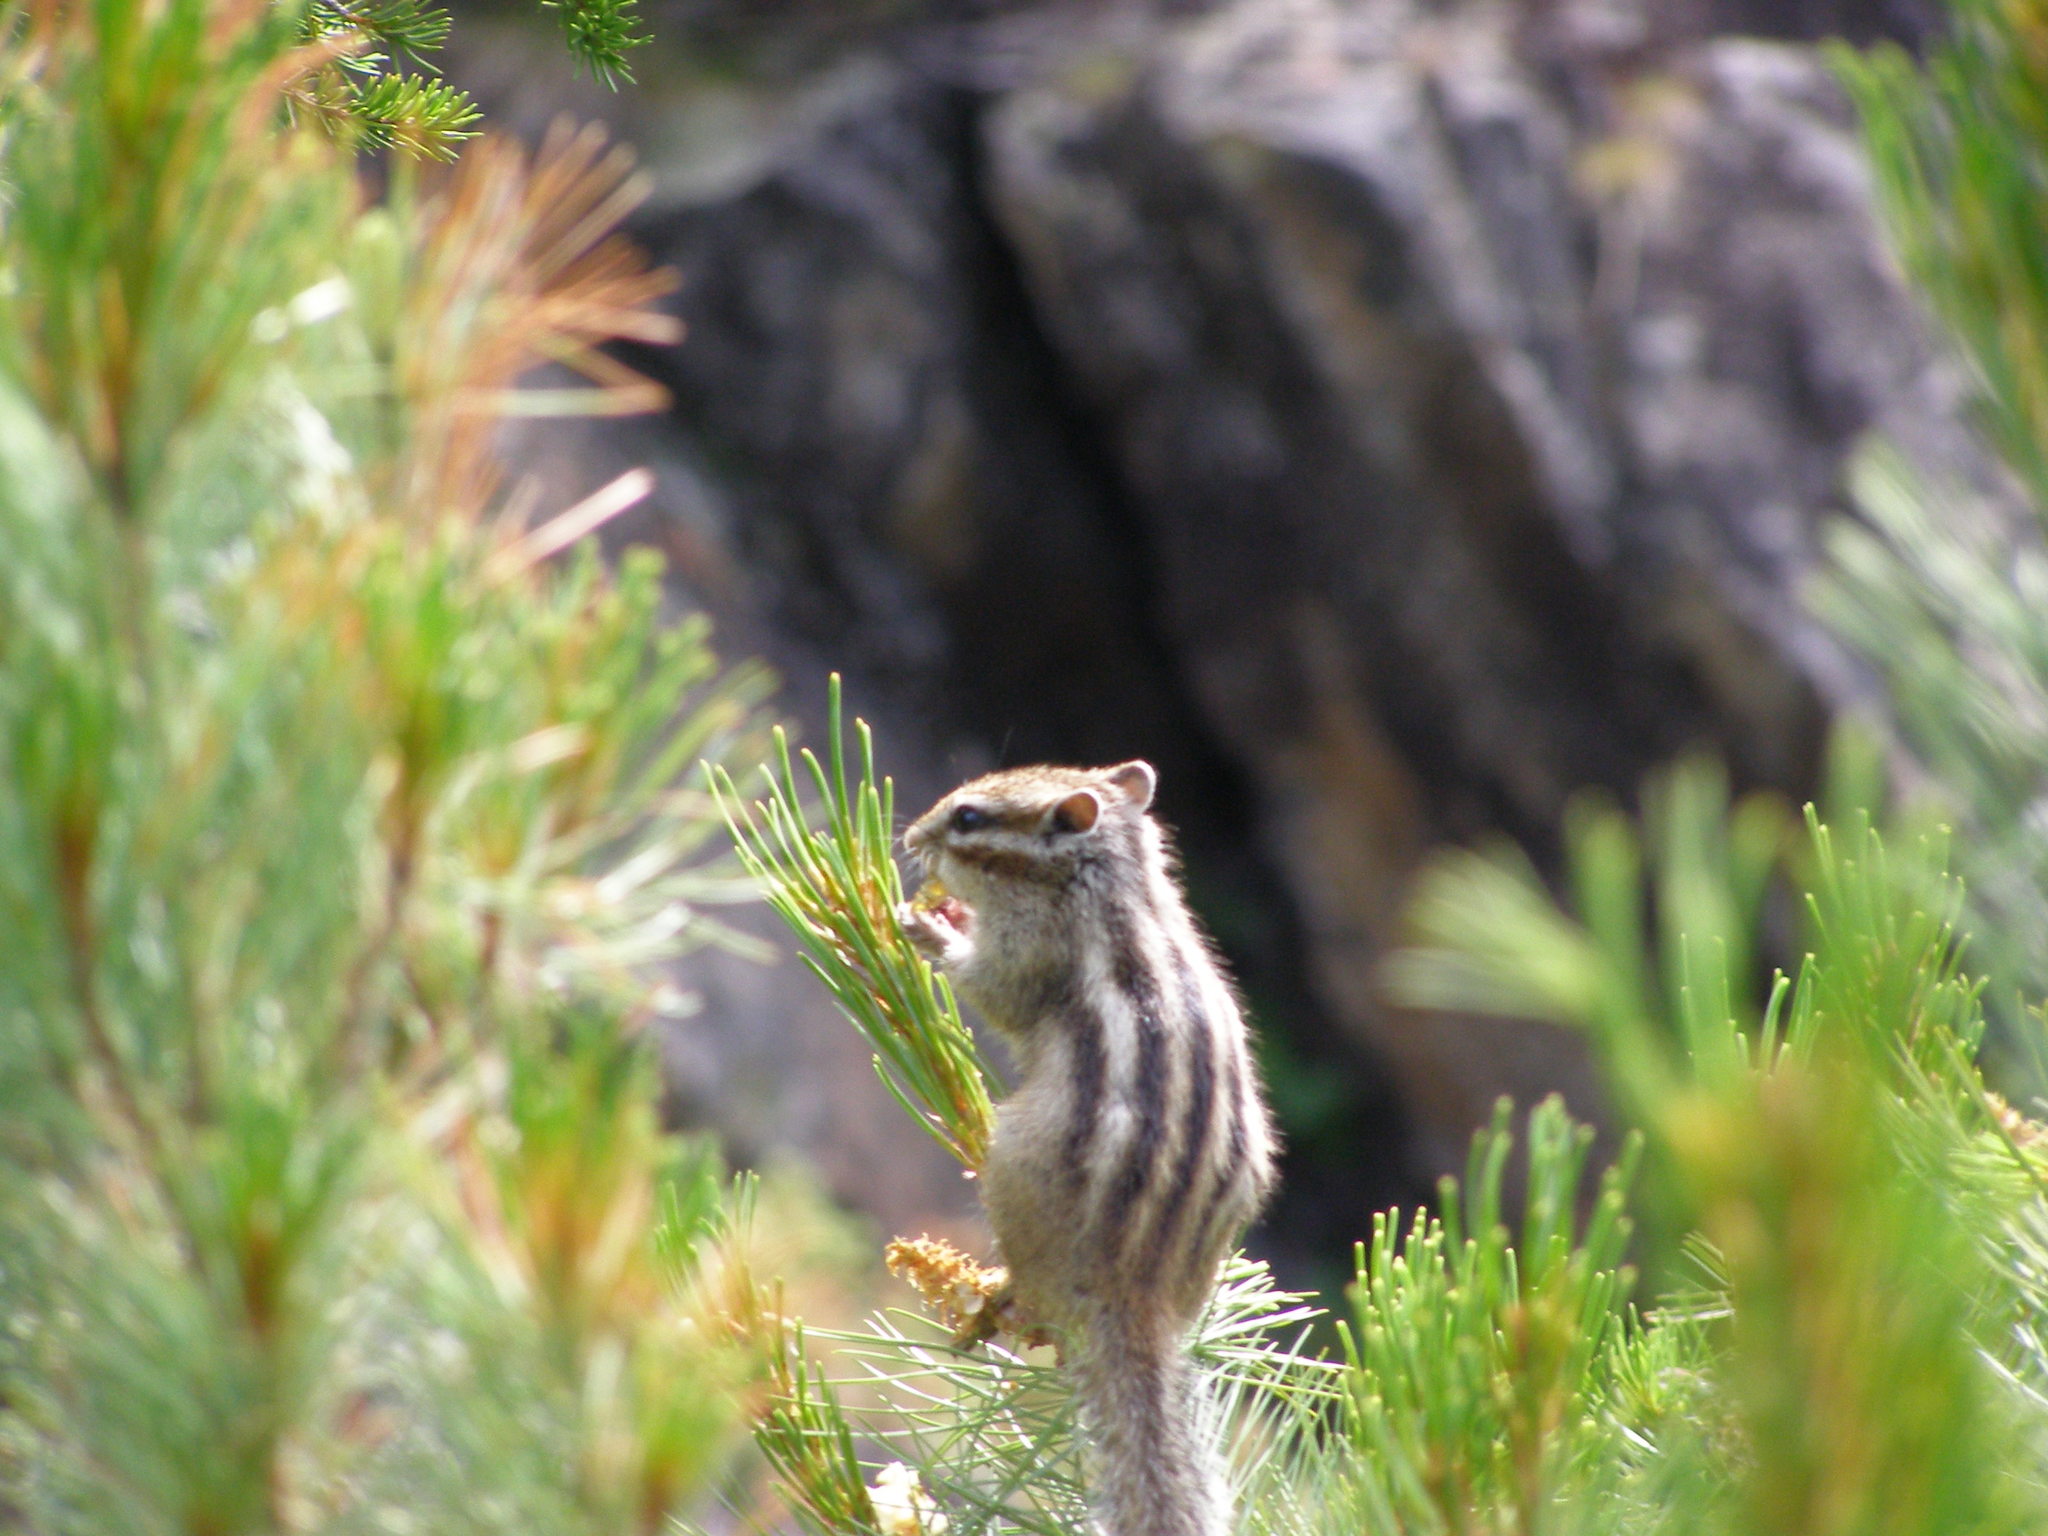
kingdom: Animalia
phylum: Chordata
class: Mammalia
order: Rodentia
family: Sciuridae
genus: Tamias
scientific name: Tamias sibiricus
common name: Siberian chipmunk
